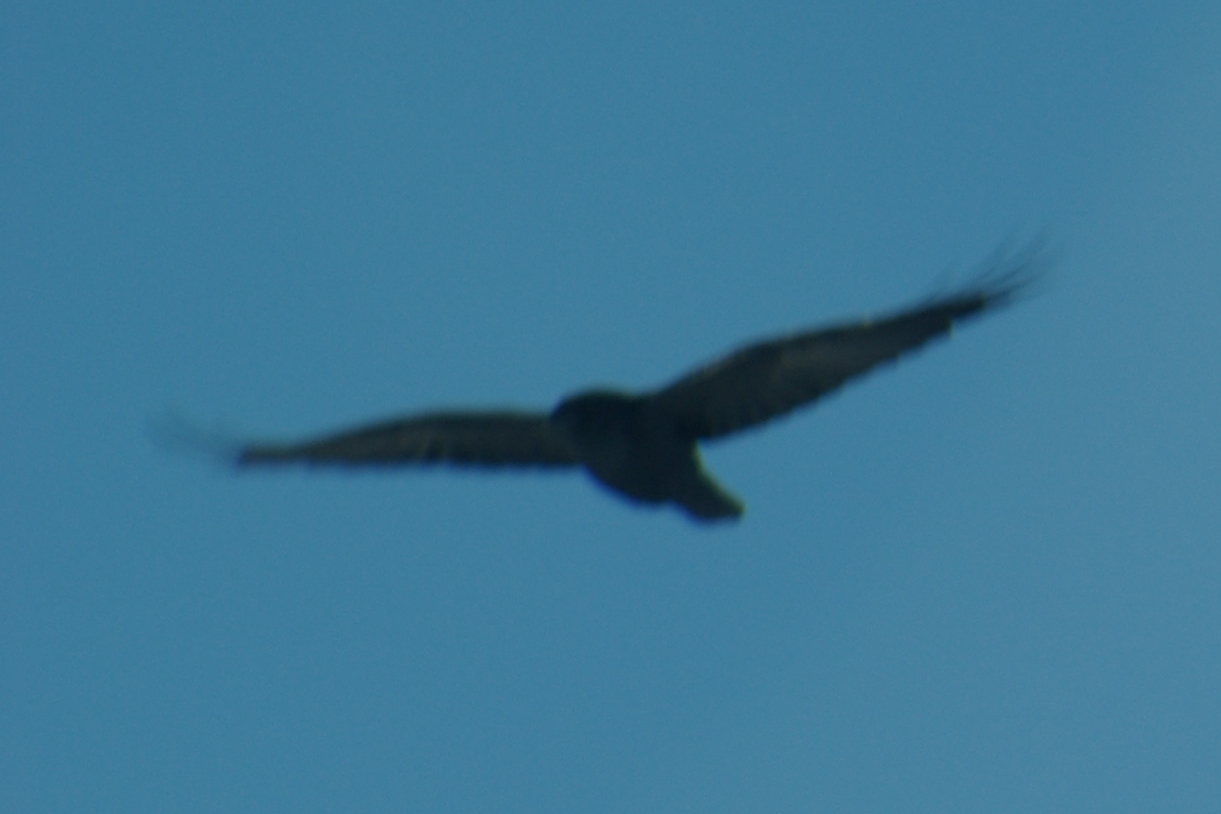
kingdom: Animalia
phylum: Chordata
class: Aves
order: Passeriformes
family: Corvidae
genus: Corvus
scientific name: Corvus corax
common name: Common raven
